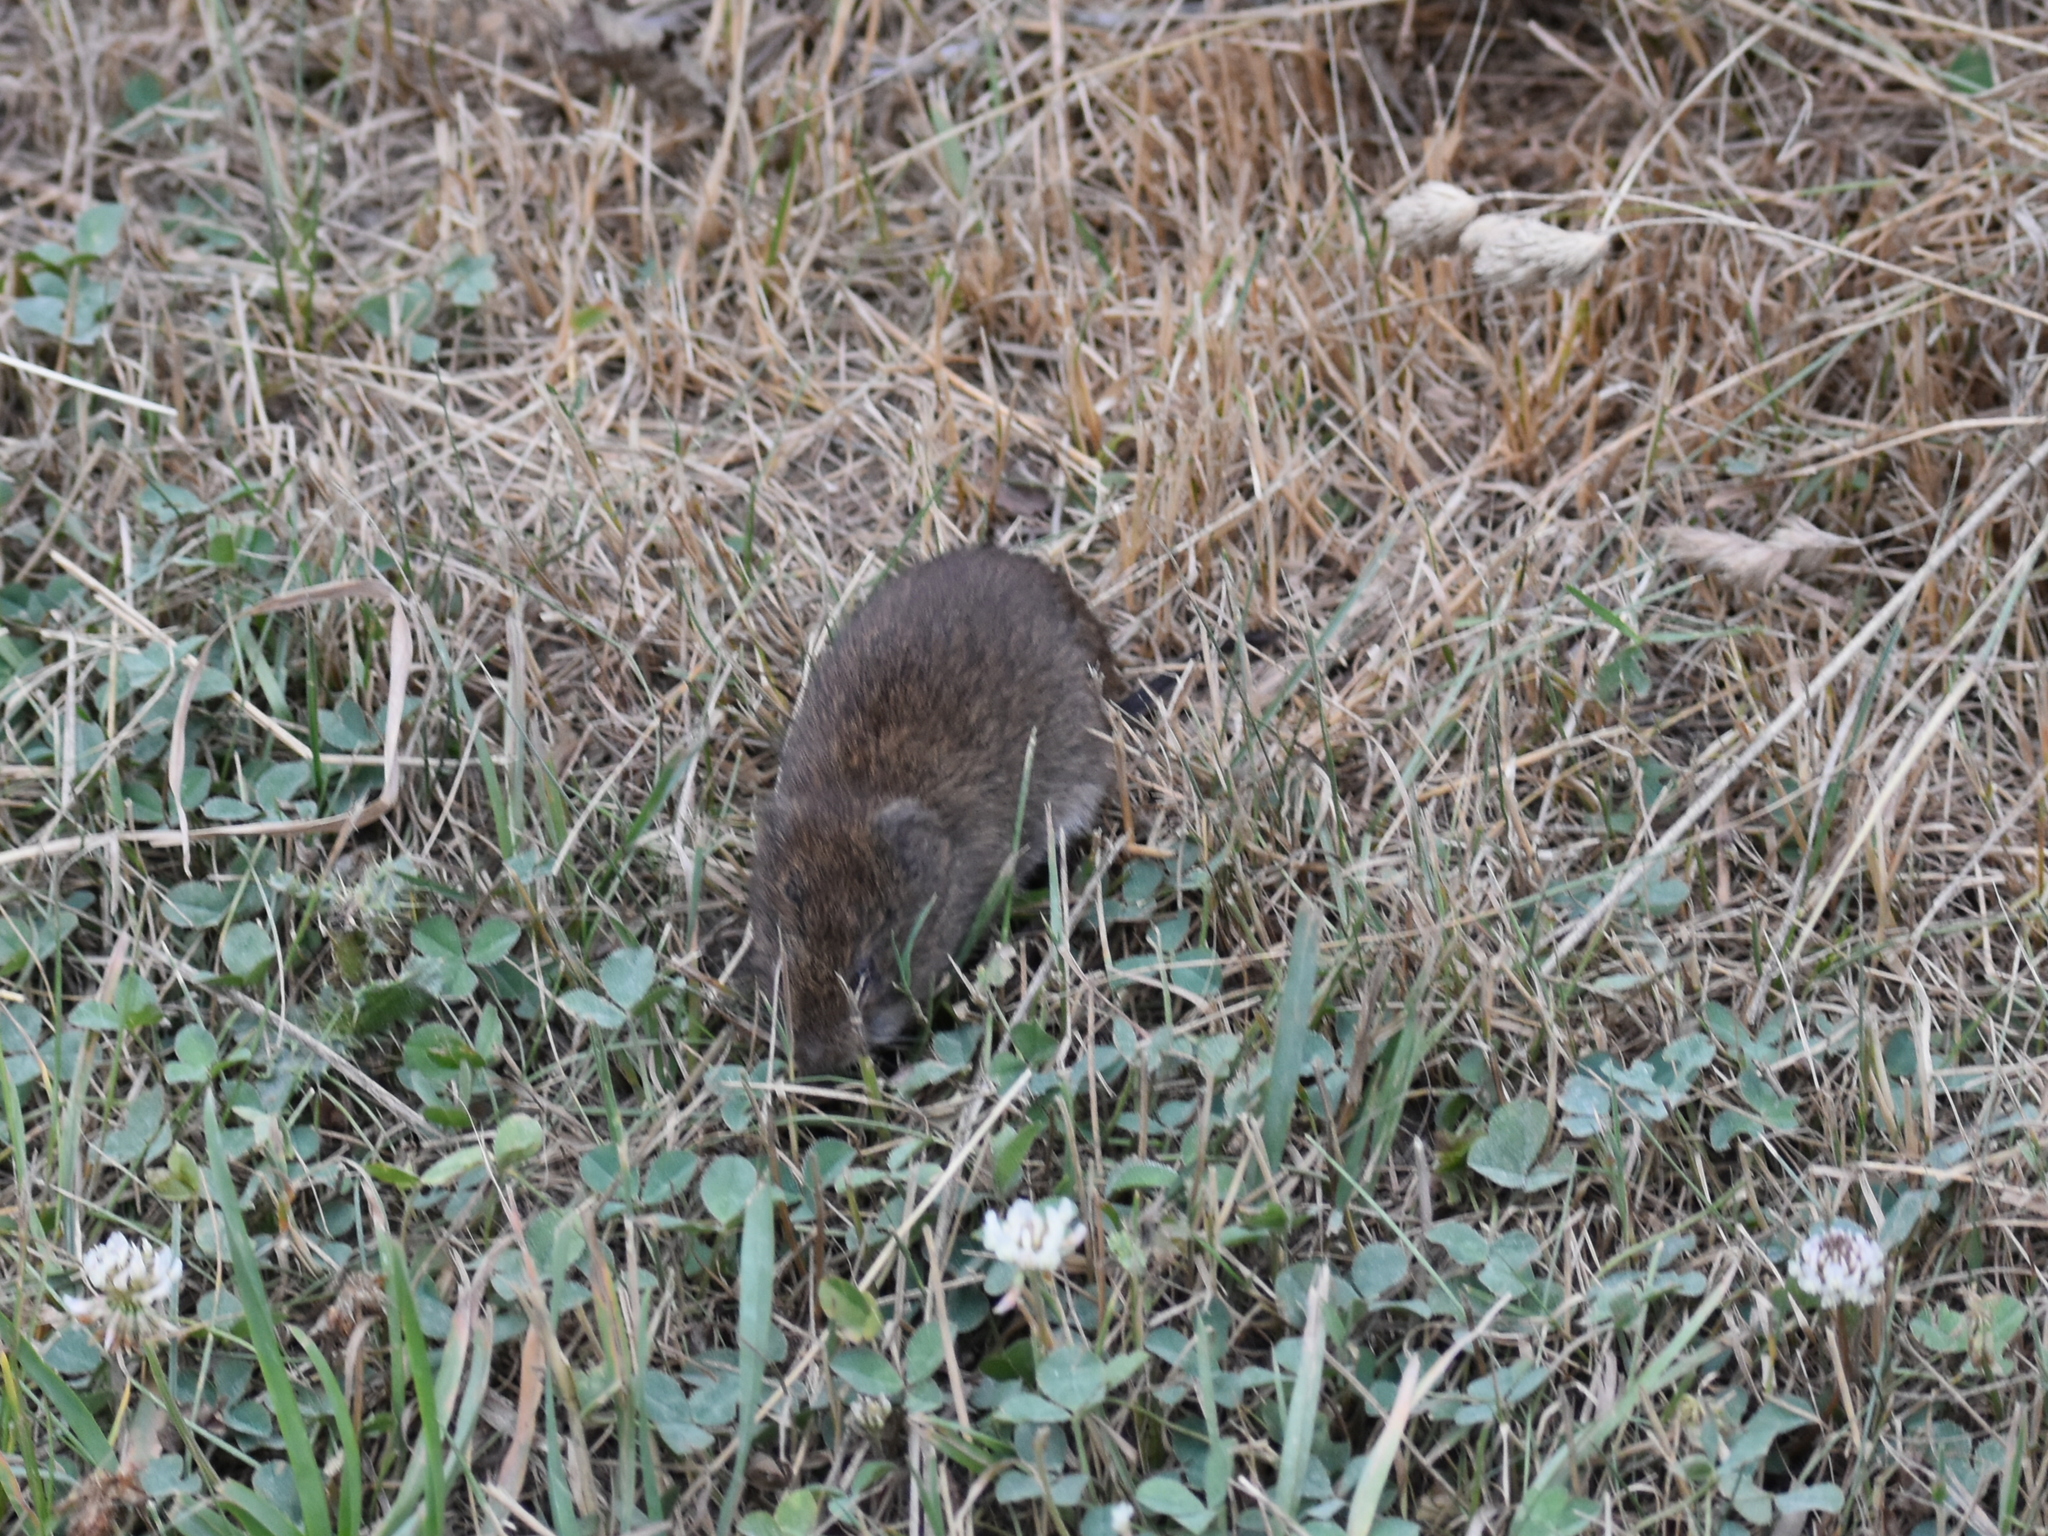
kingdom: Animalia
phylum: Chordata
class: Mammalia
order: Rodentia
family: Cricetidae
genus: Microtus
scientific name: Microtus pennsylvanicus
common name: Meadow vole
